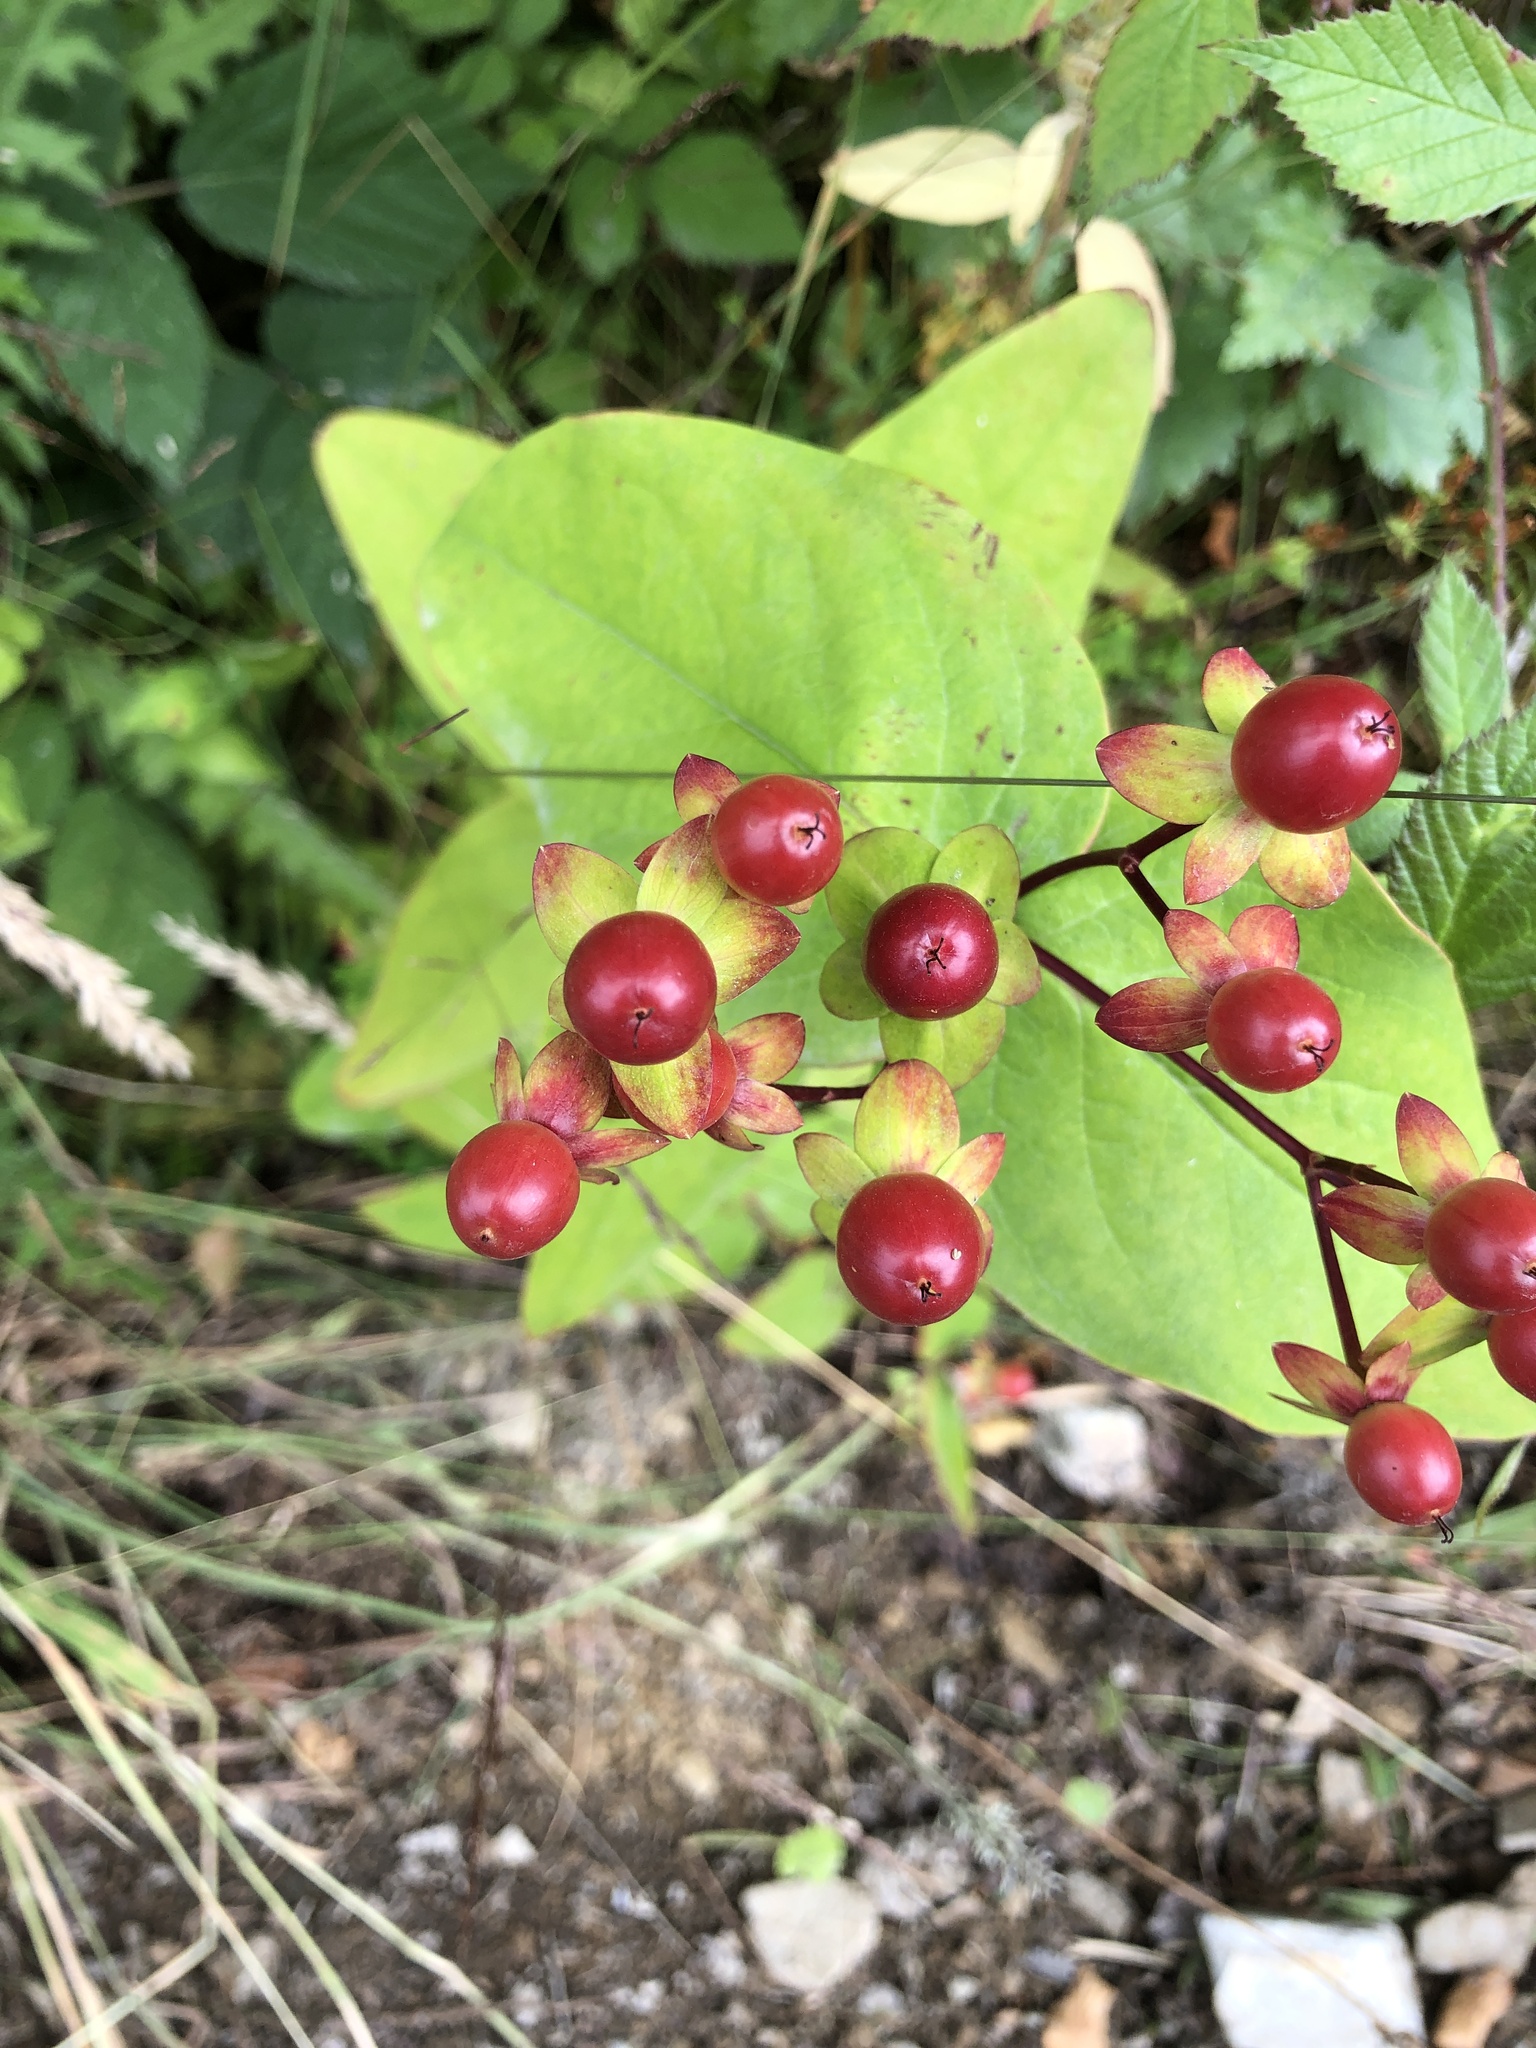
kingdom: Plantae
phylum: Tracheophyta
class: Magnoliopsida
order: Malpighiales
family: Hypericaceae
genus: Hypericum
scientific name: Hypericum androsaemum
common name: Sweet-amber
